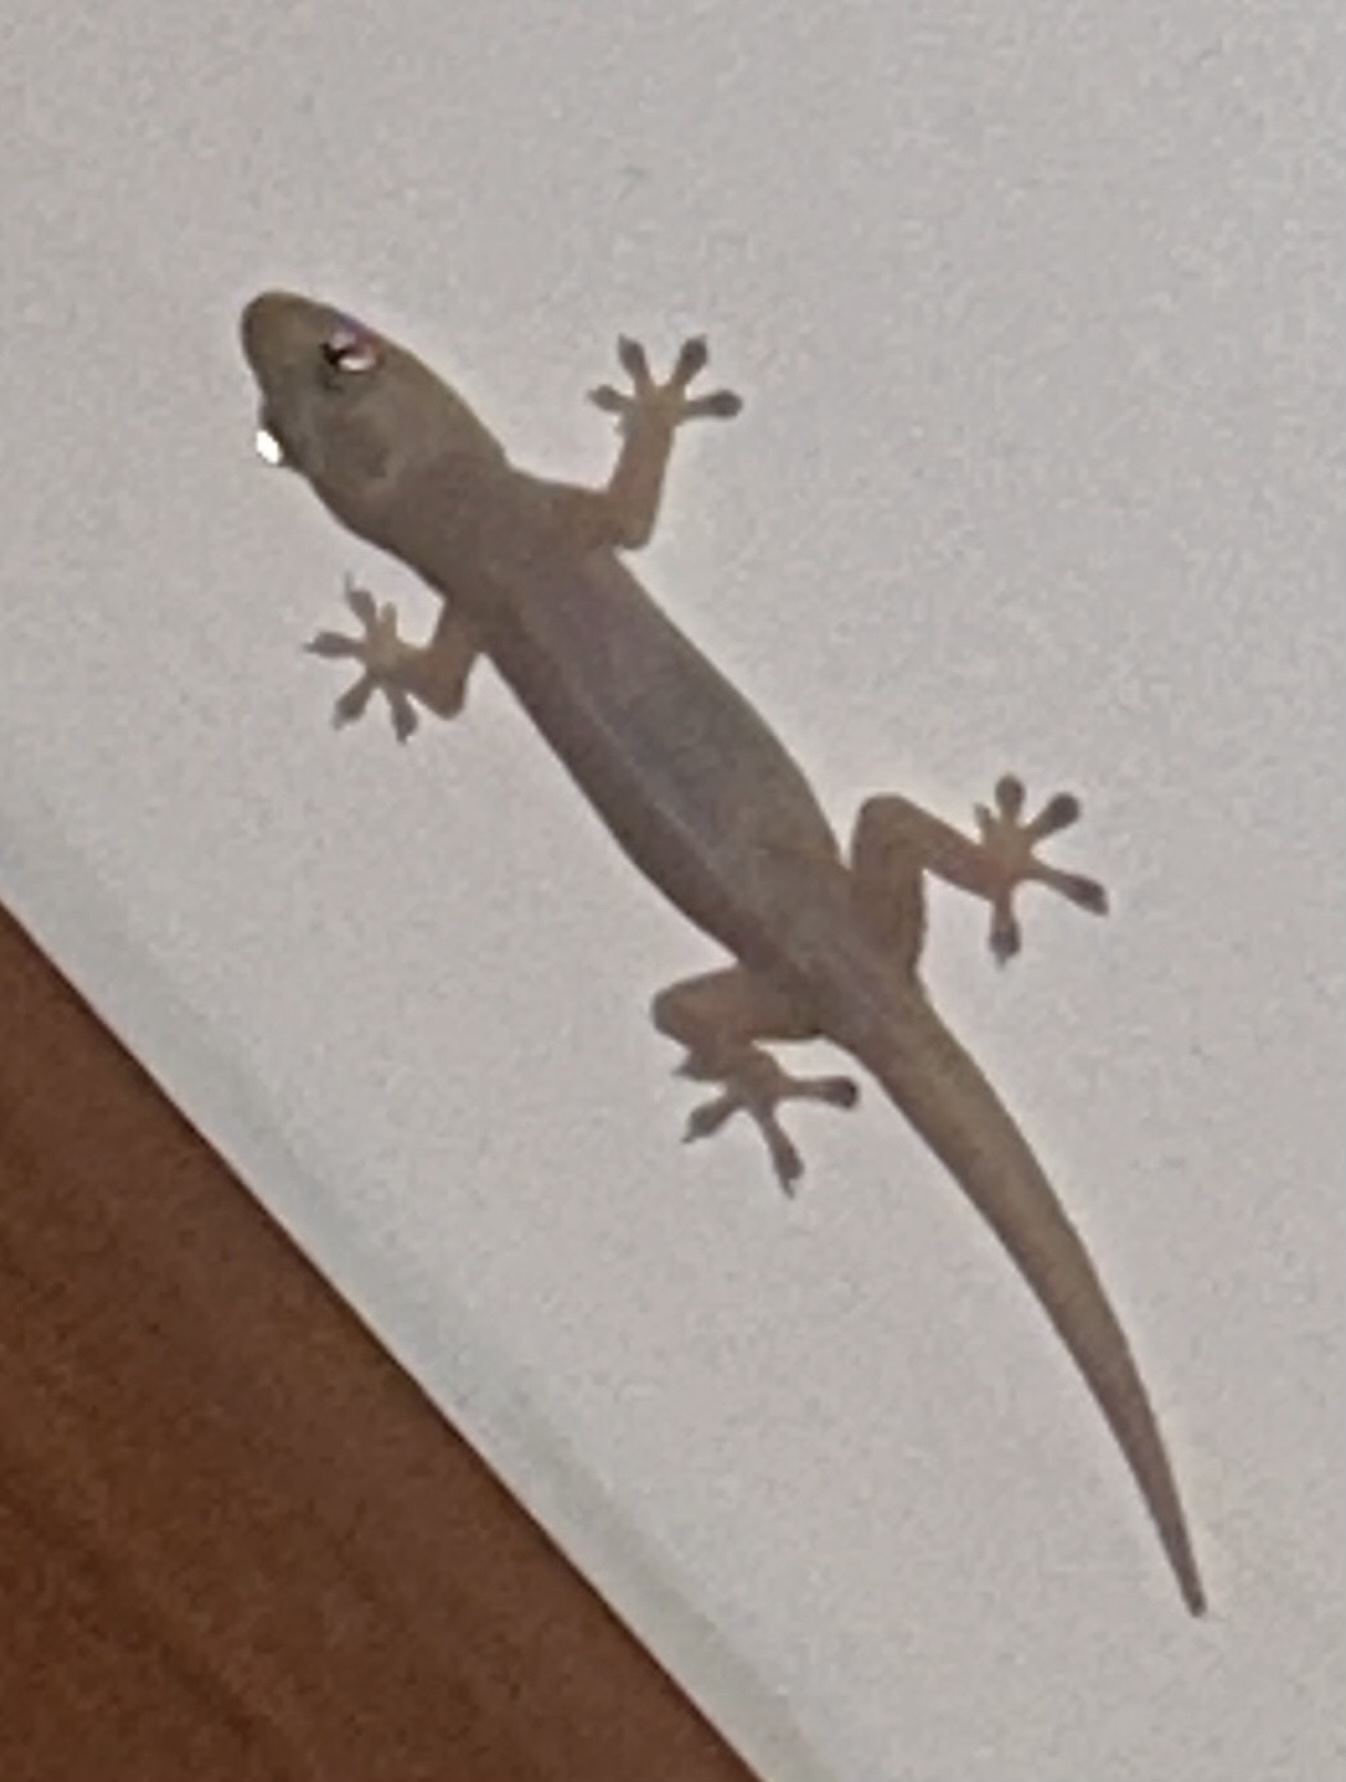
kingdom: Animalia
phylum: Chordata
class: Squamata
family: Gekkonidae
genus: Hemidactylus
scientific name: Hemidactylus frenatus
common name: Common house gecko
